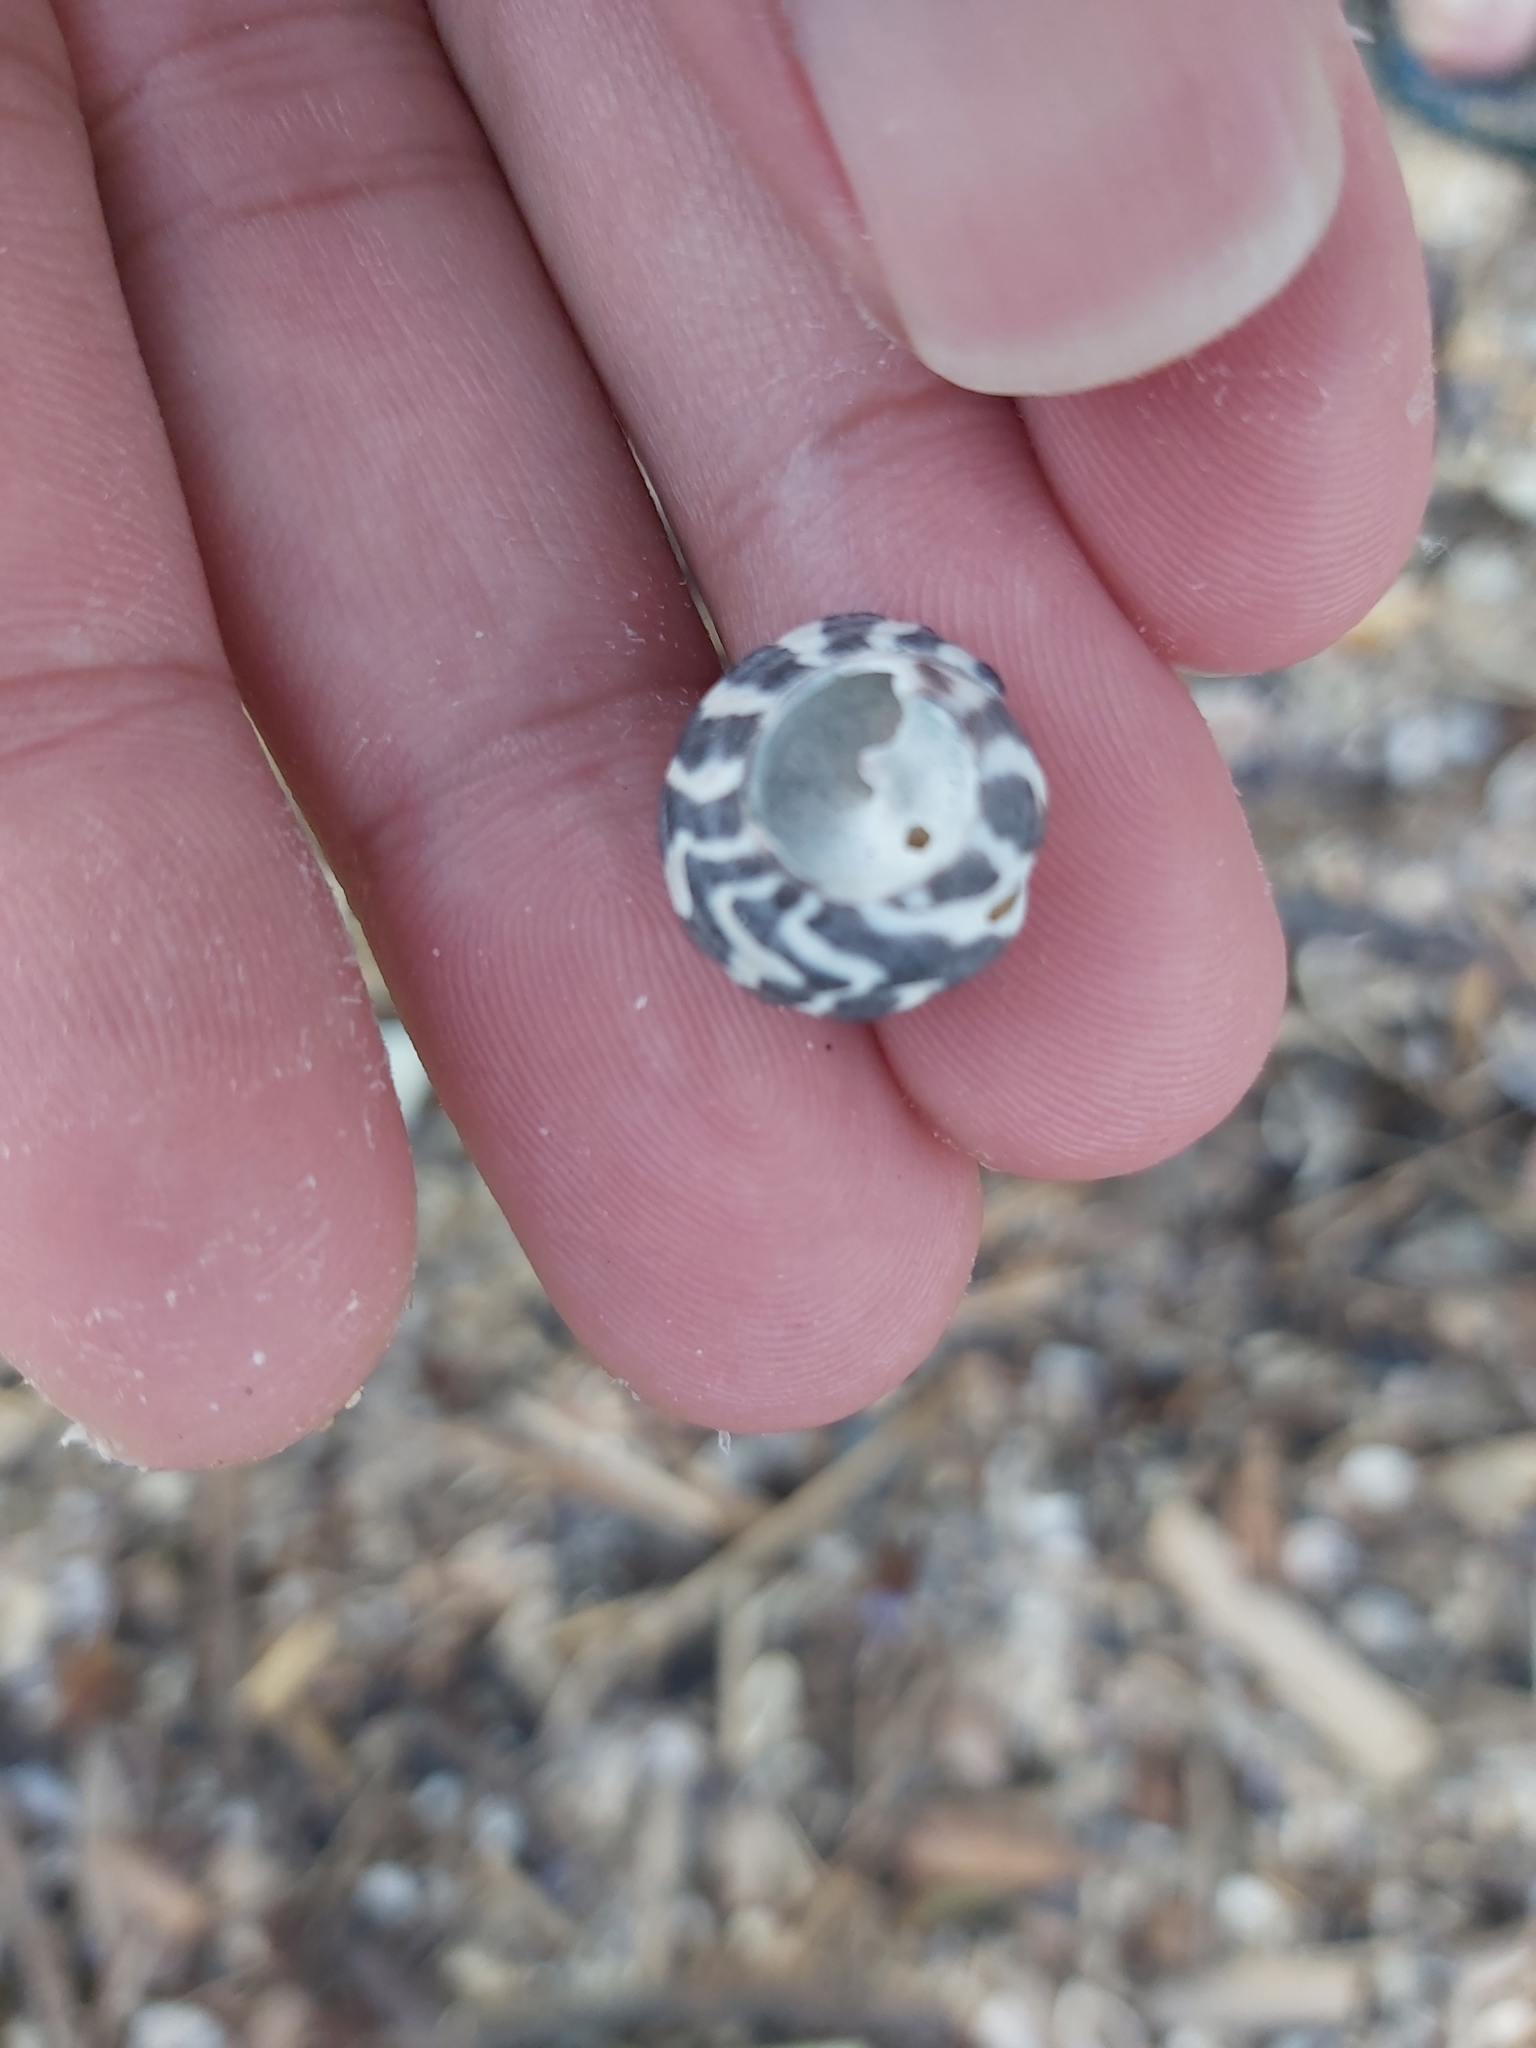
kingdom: Animalia
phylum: Mollusca
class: Gastropoda
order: Trochida
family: Trochidae
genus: Austrocochlea
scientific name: Austrocochlea porcata
